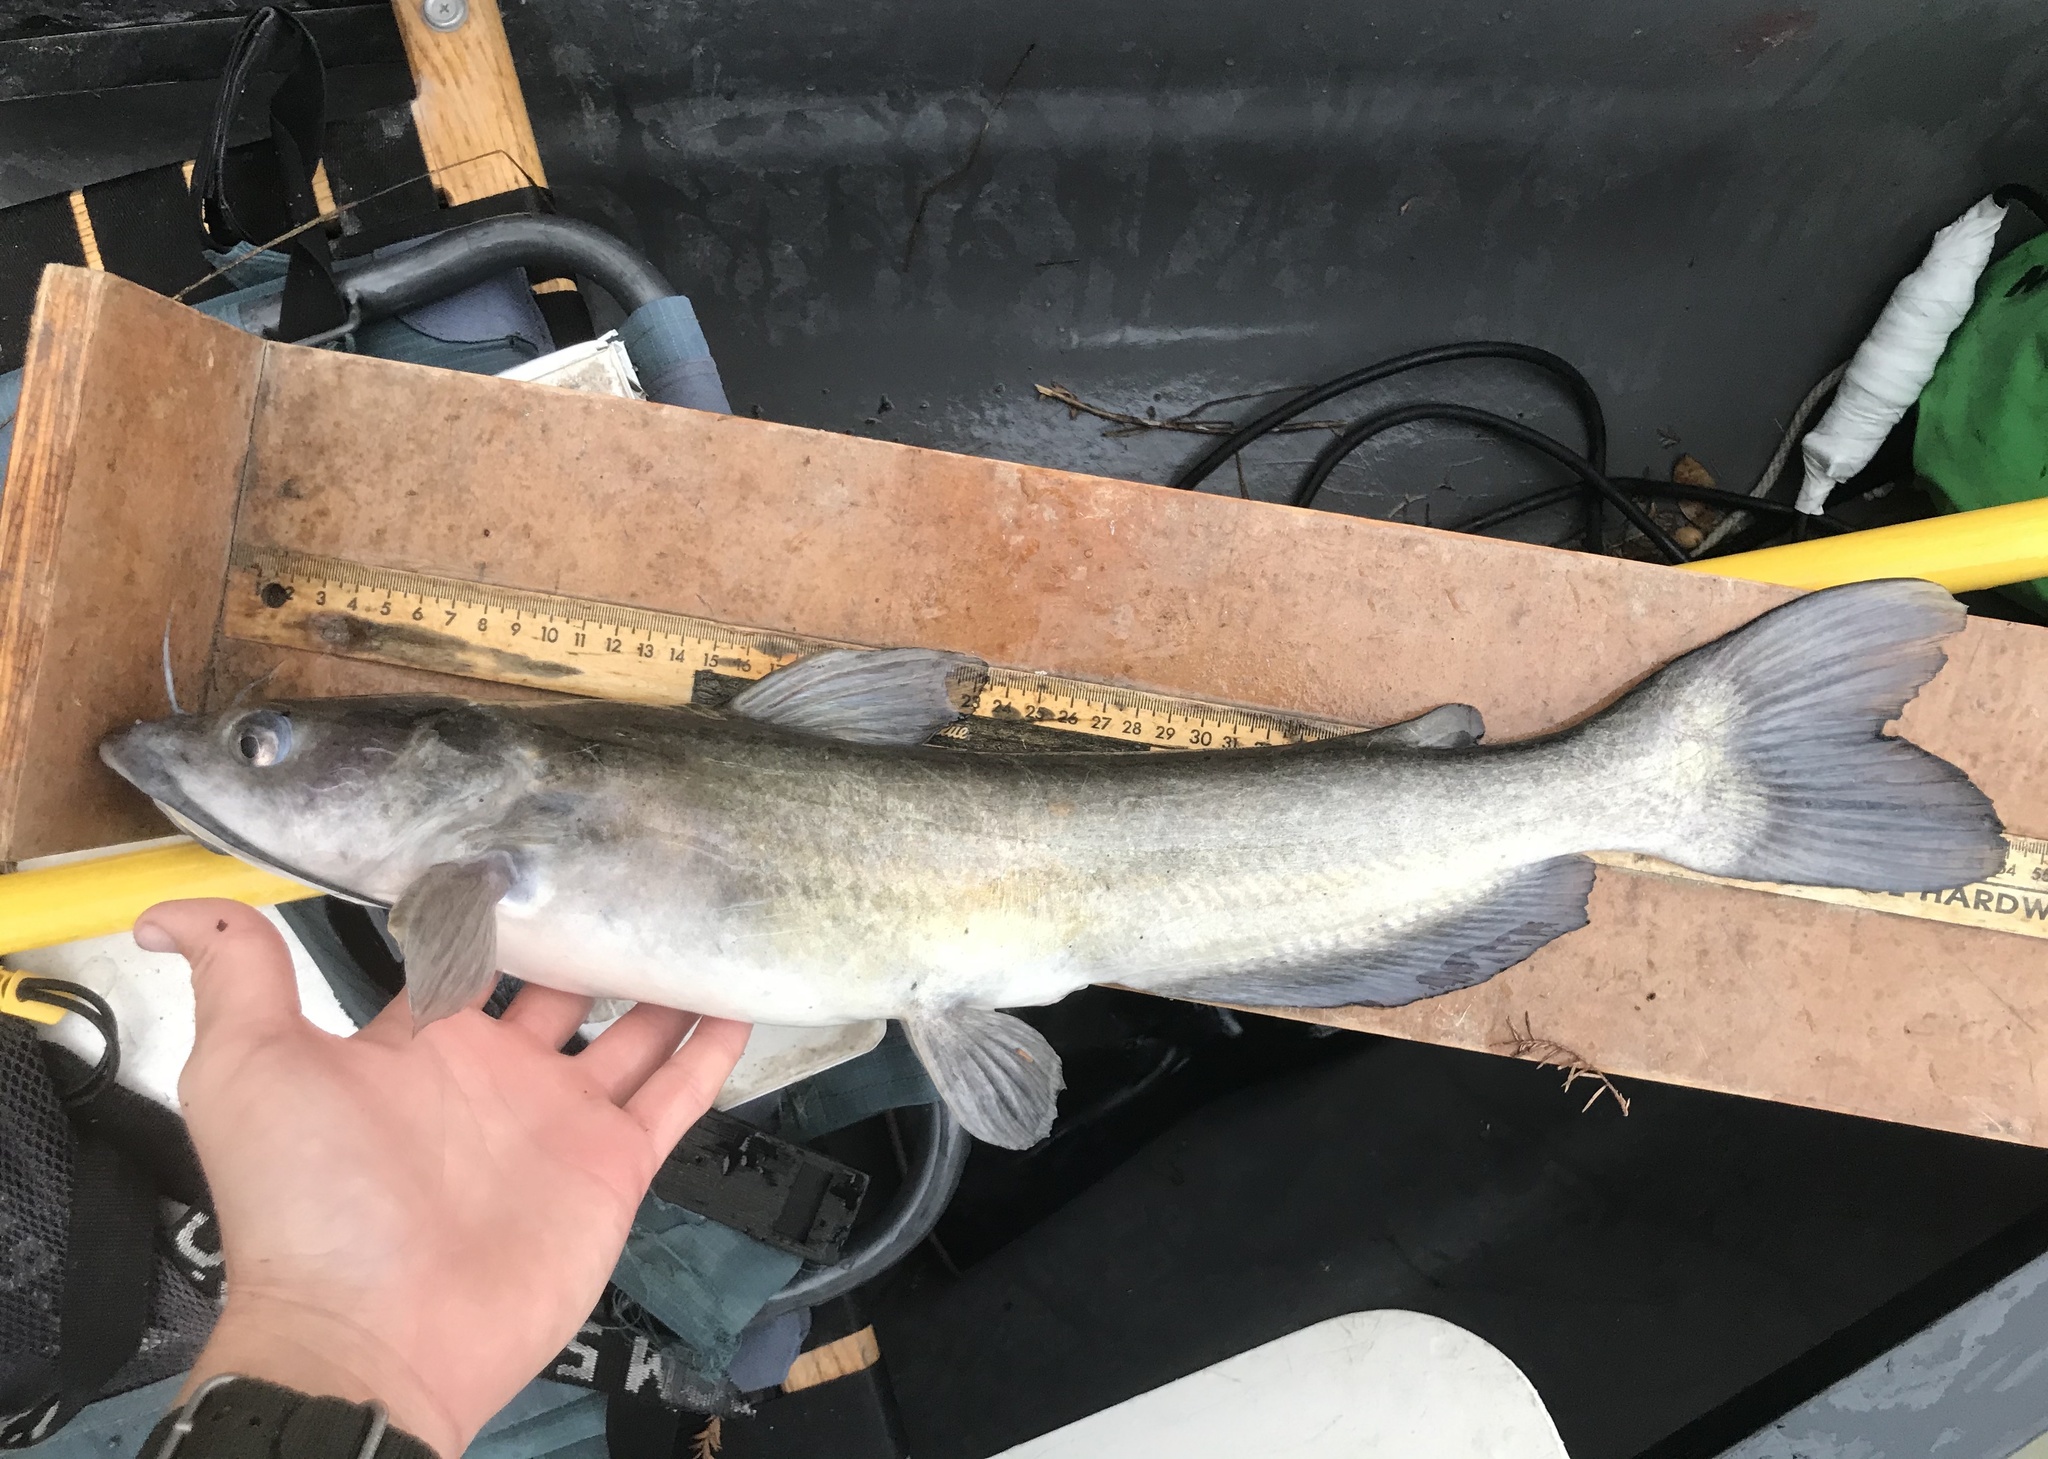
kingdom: Animalia
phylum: Chordata
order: Siluriformes
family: Ictaluridae
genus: Ictalurus
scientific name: Ictalurus punctatus
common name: Channel catfish
